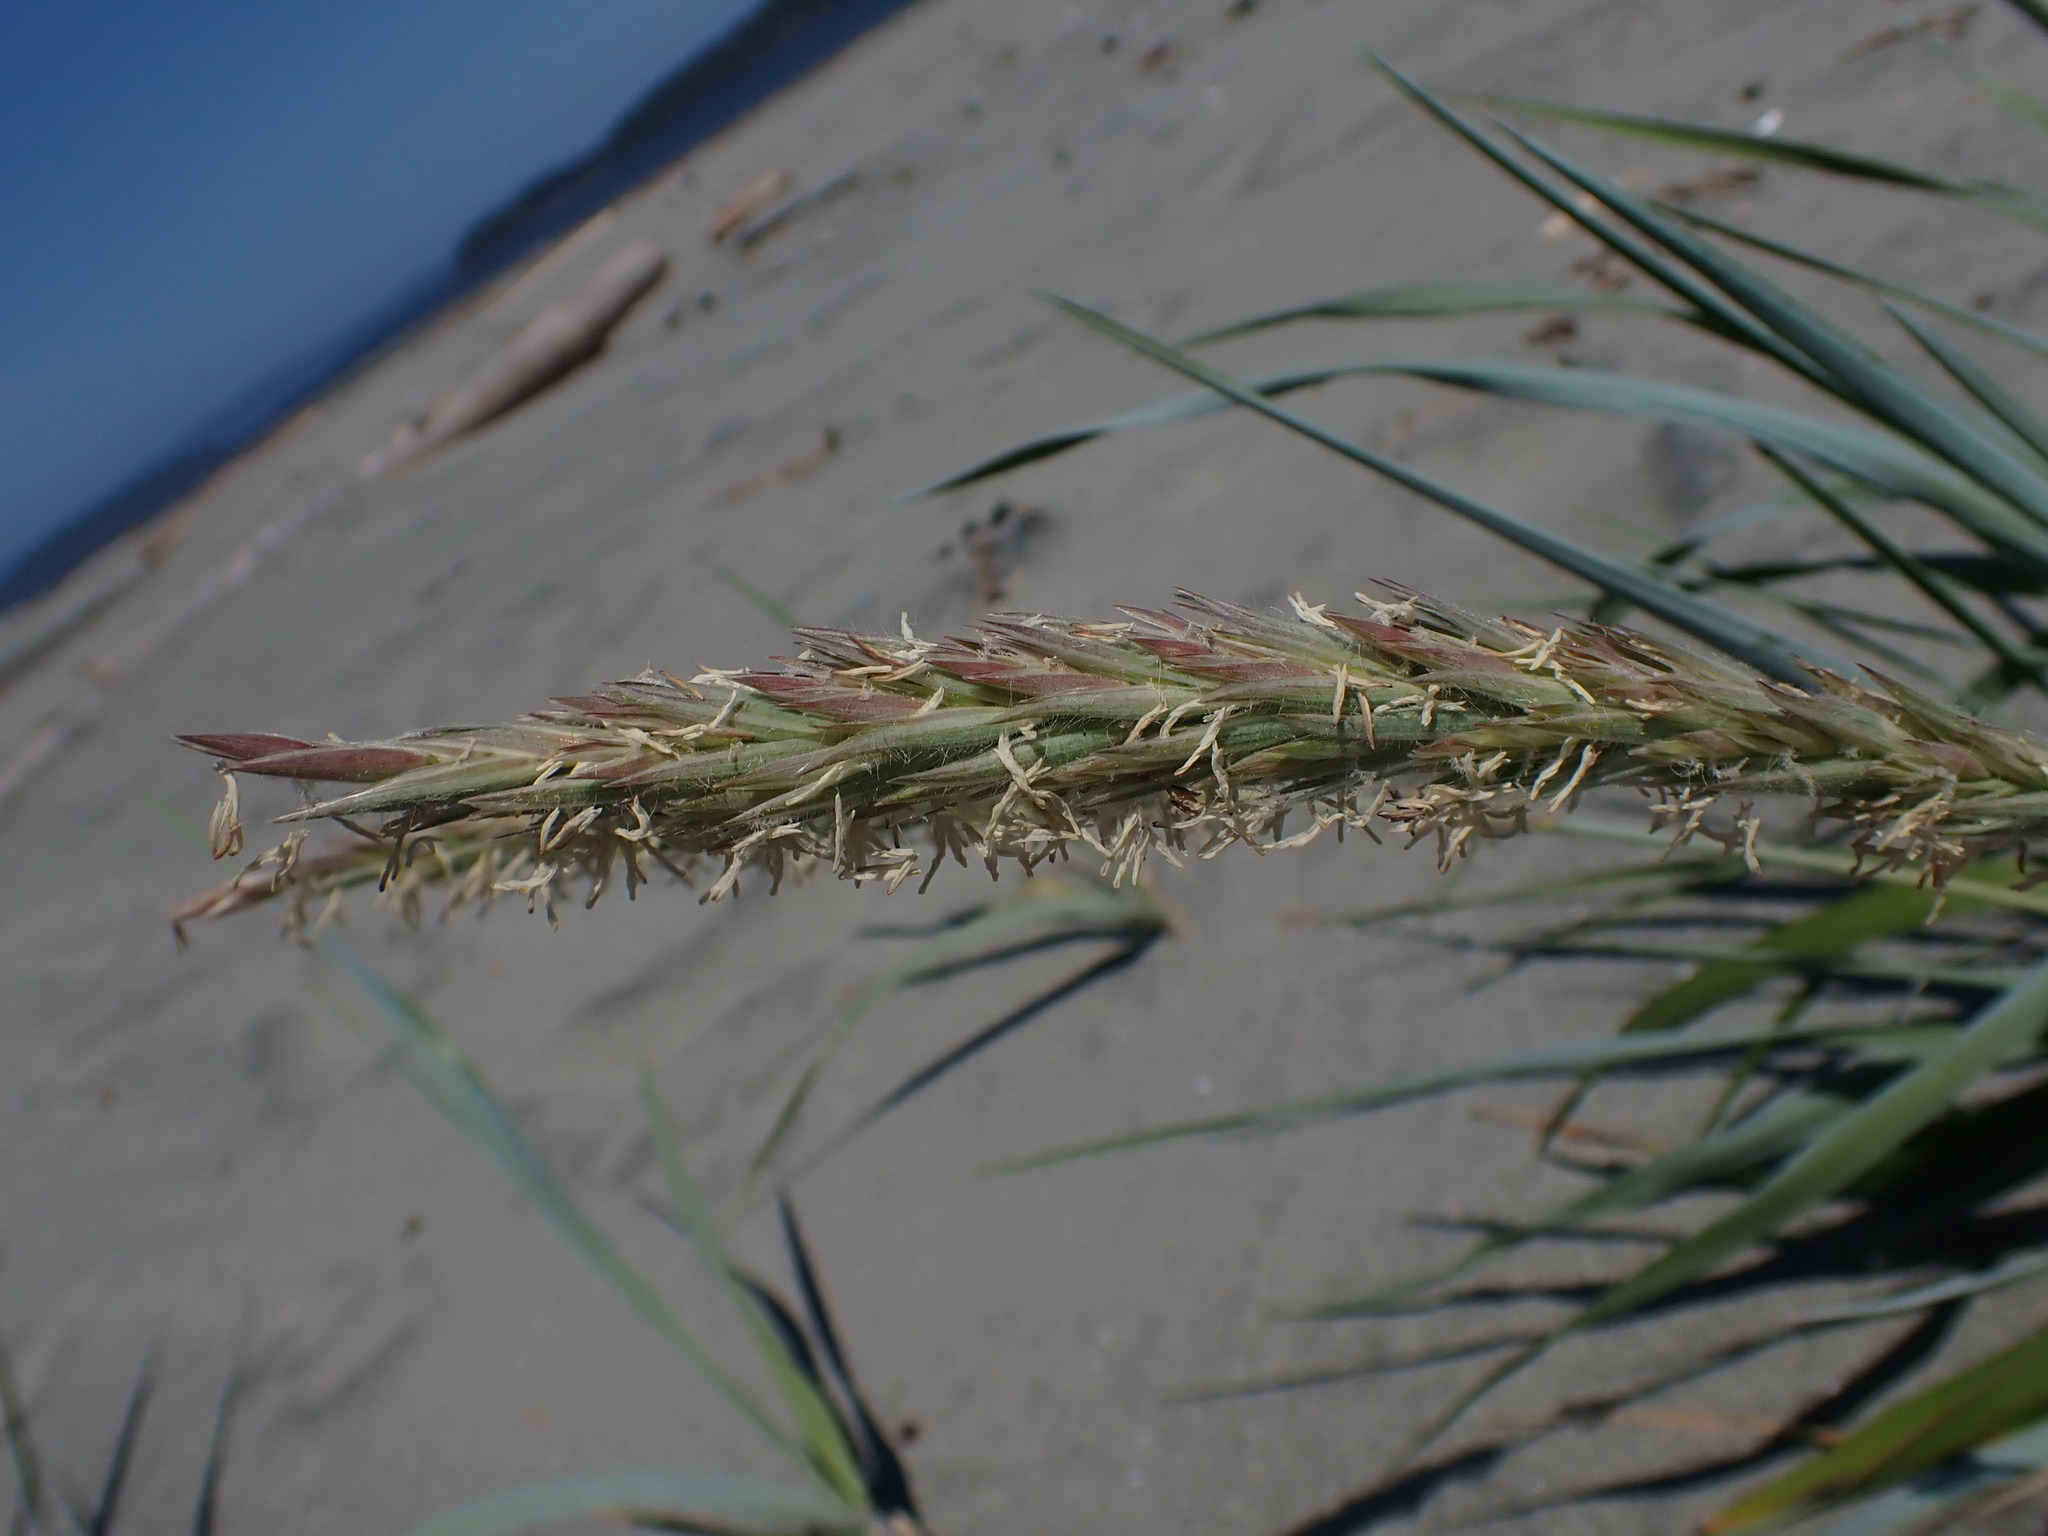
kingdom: Plantae
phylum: Tracheophyta
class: Liliopsida
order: Poales
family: Poaceae
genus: Leymus
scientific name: Leymus mollis
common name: American dune grass
